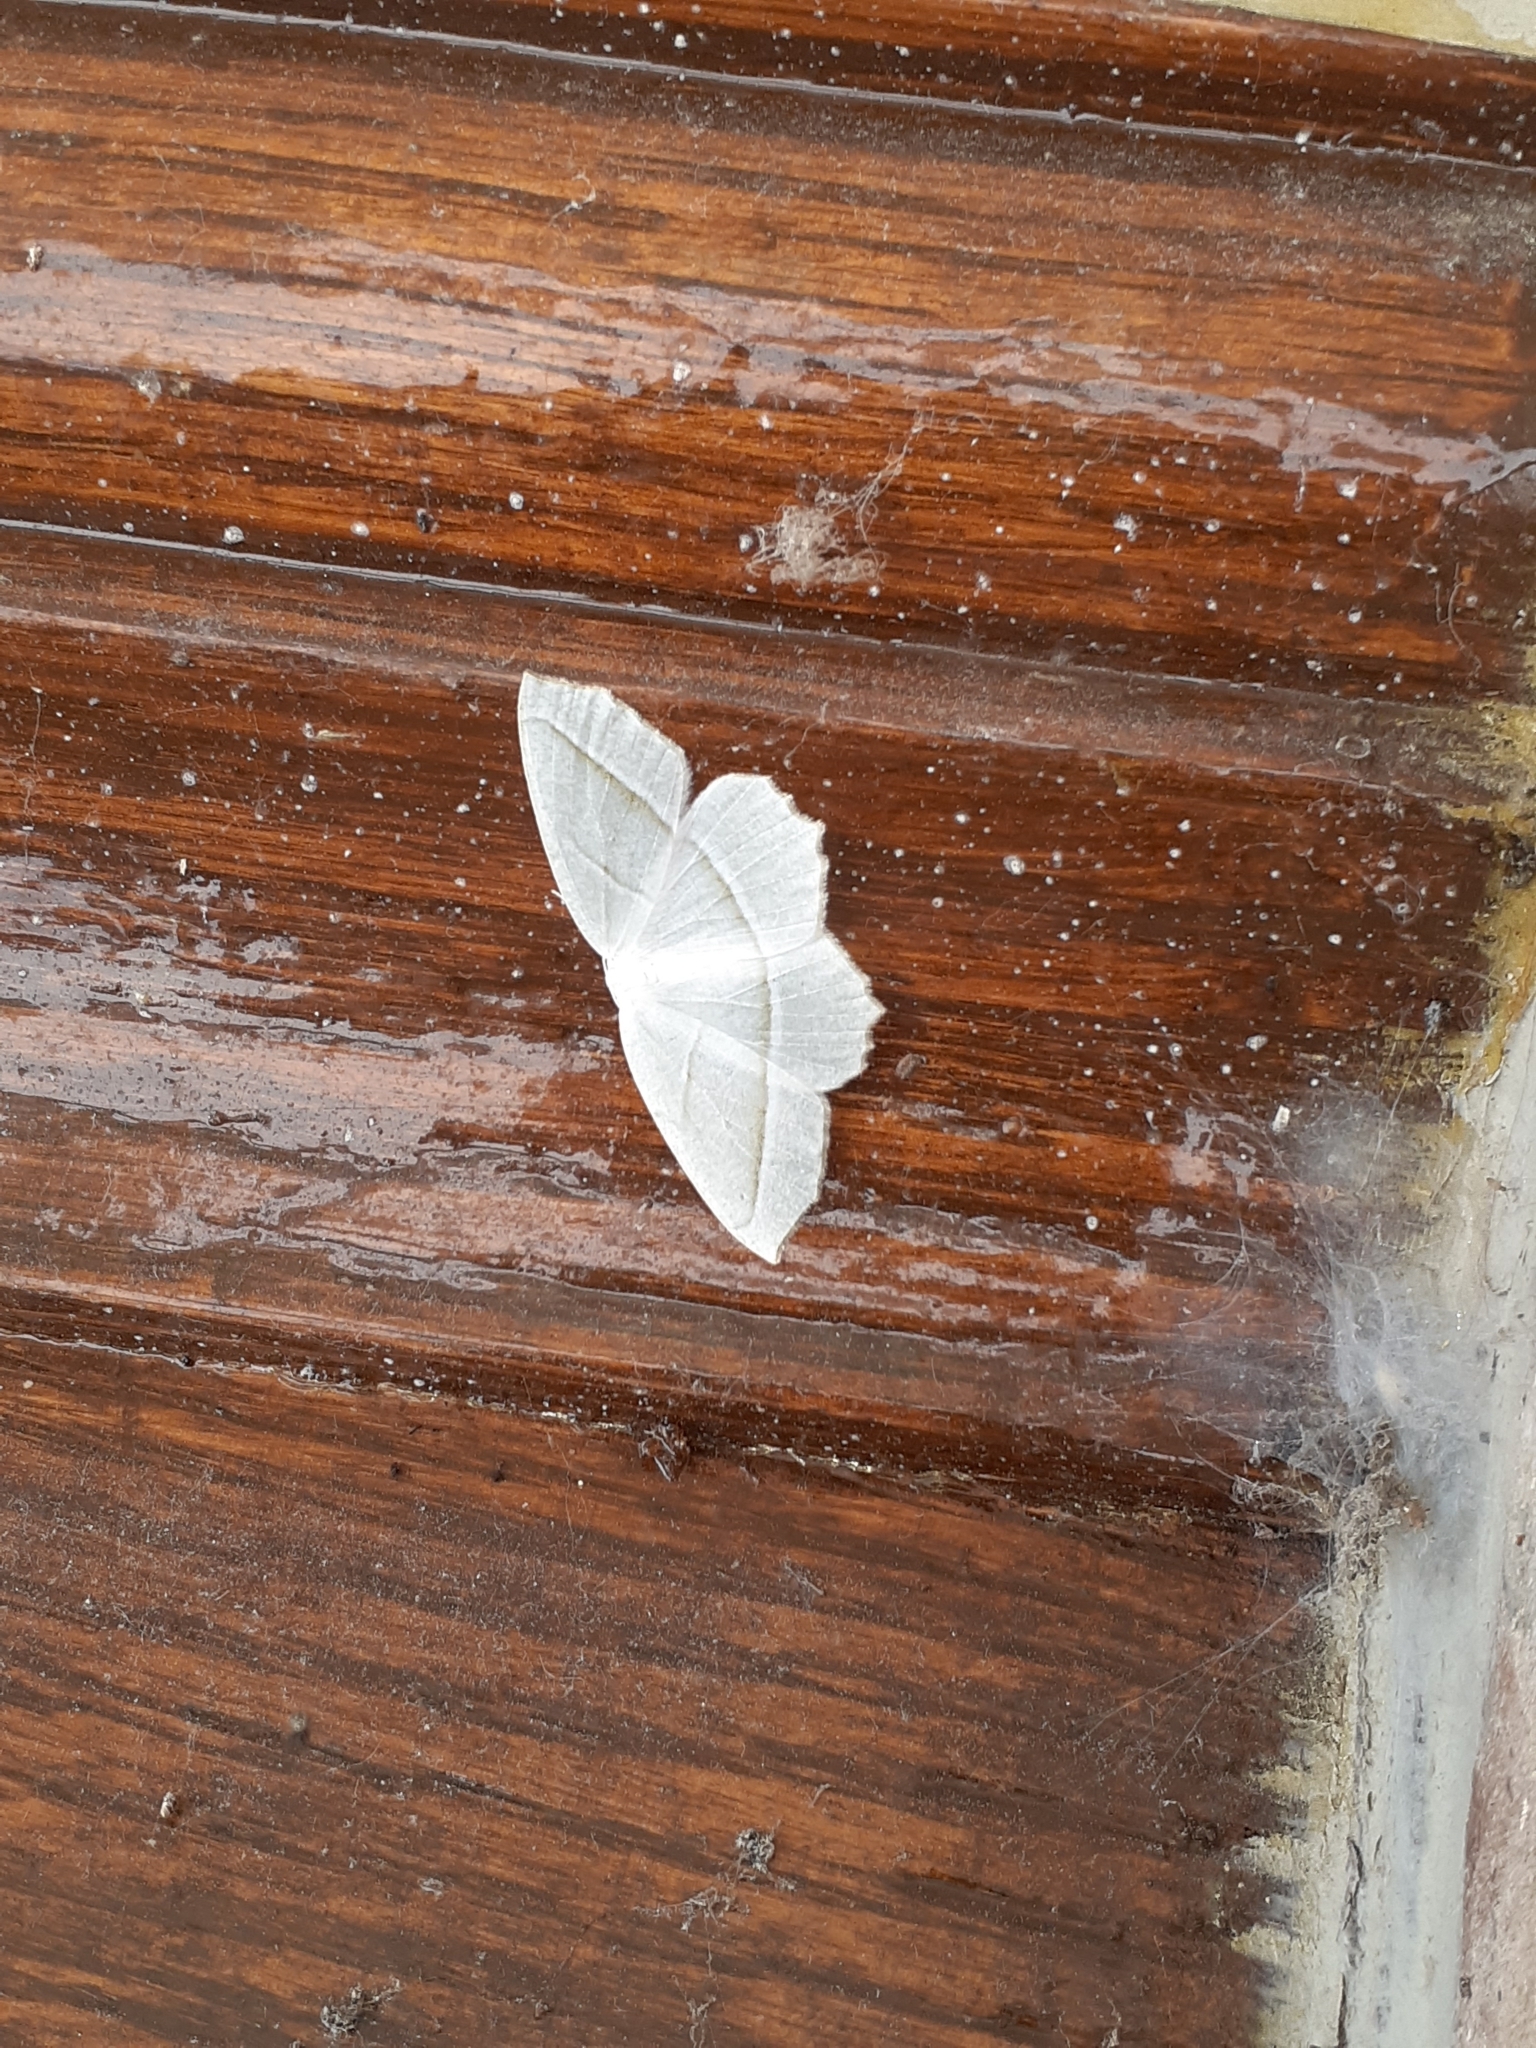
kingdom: Animalia
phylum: Arthropoda
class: Insecta
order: Lepidoptera
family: Geometridae
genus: Campaea
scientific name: Campaea perlata
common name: Fringed looper
